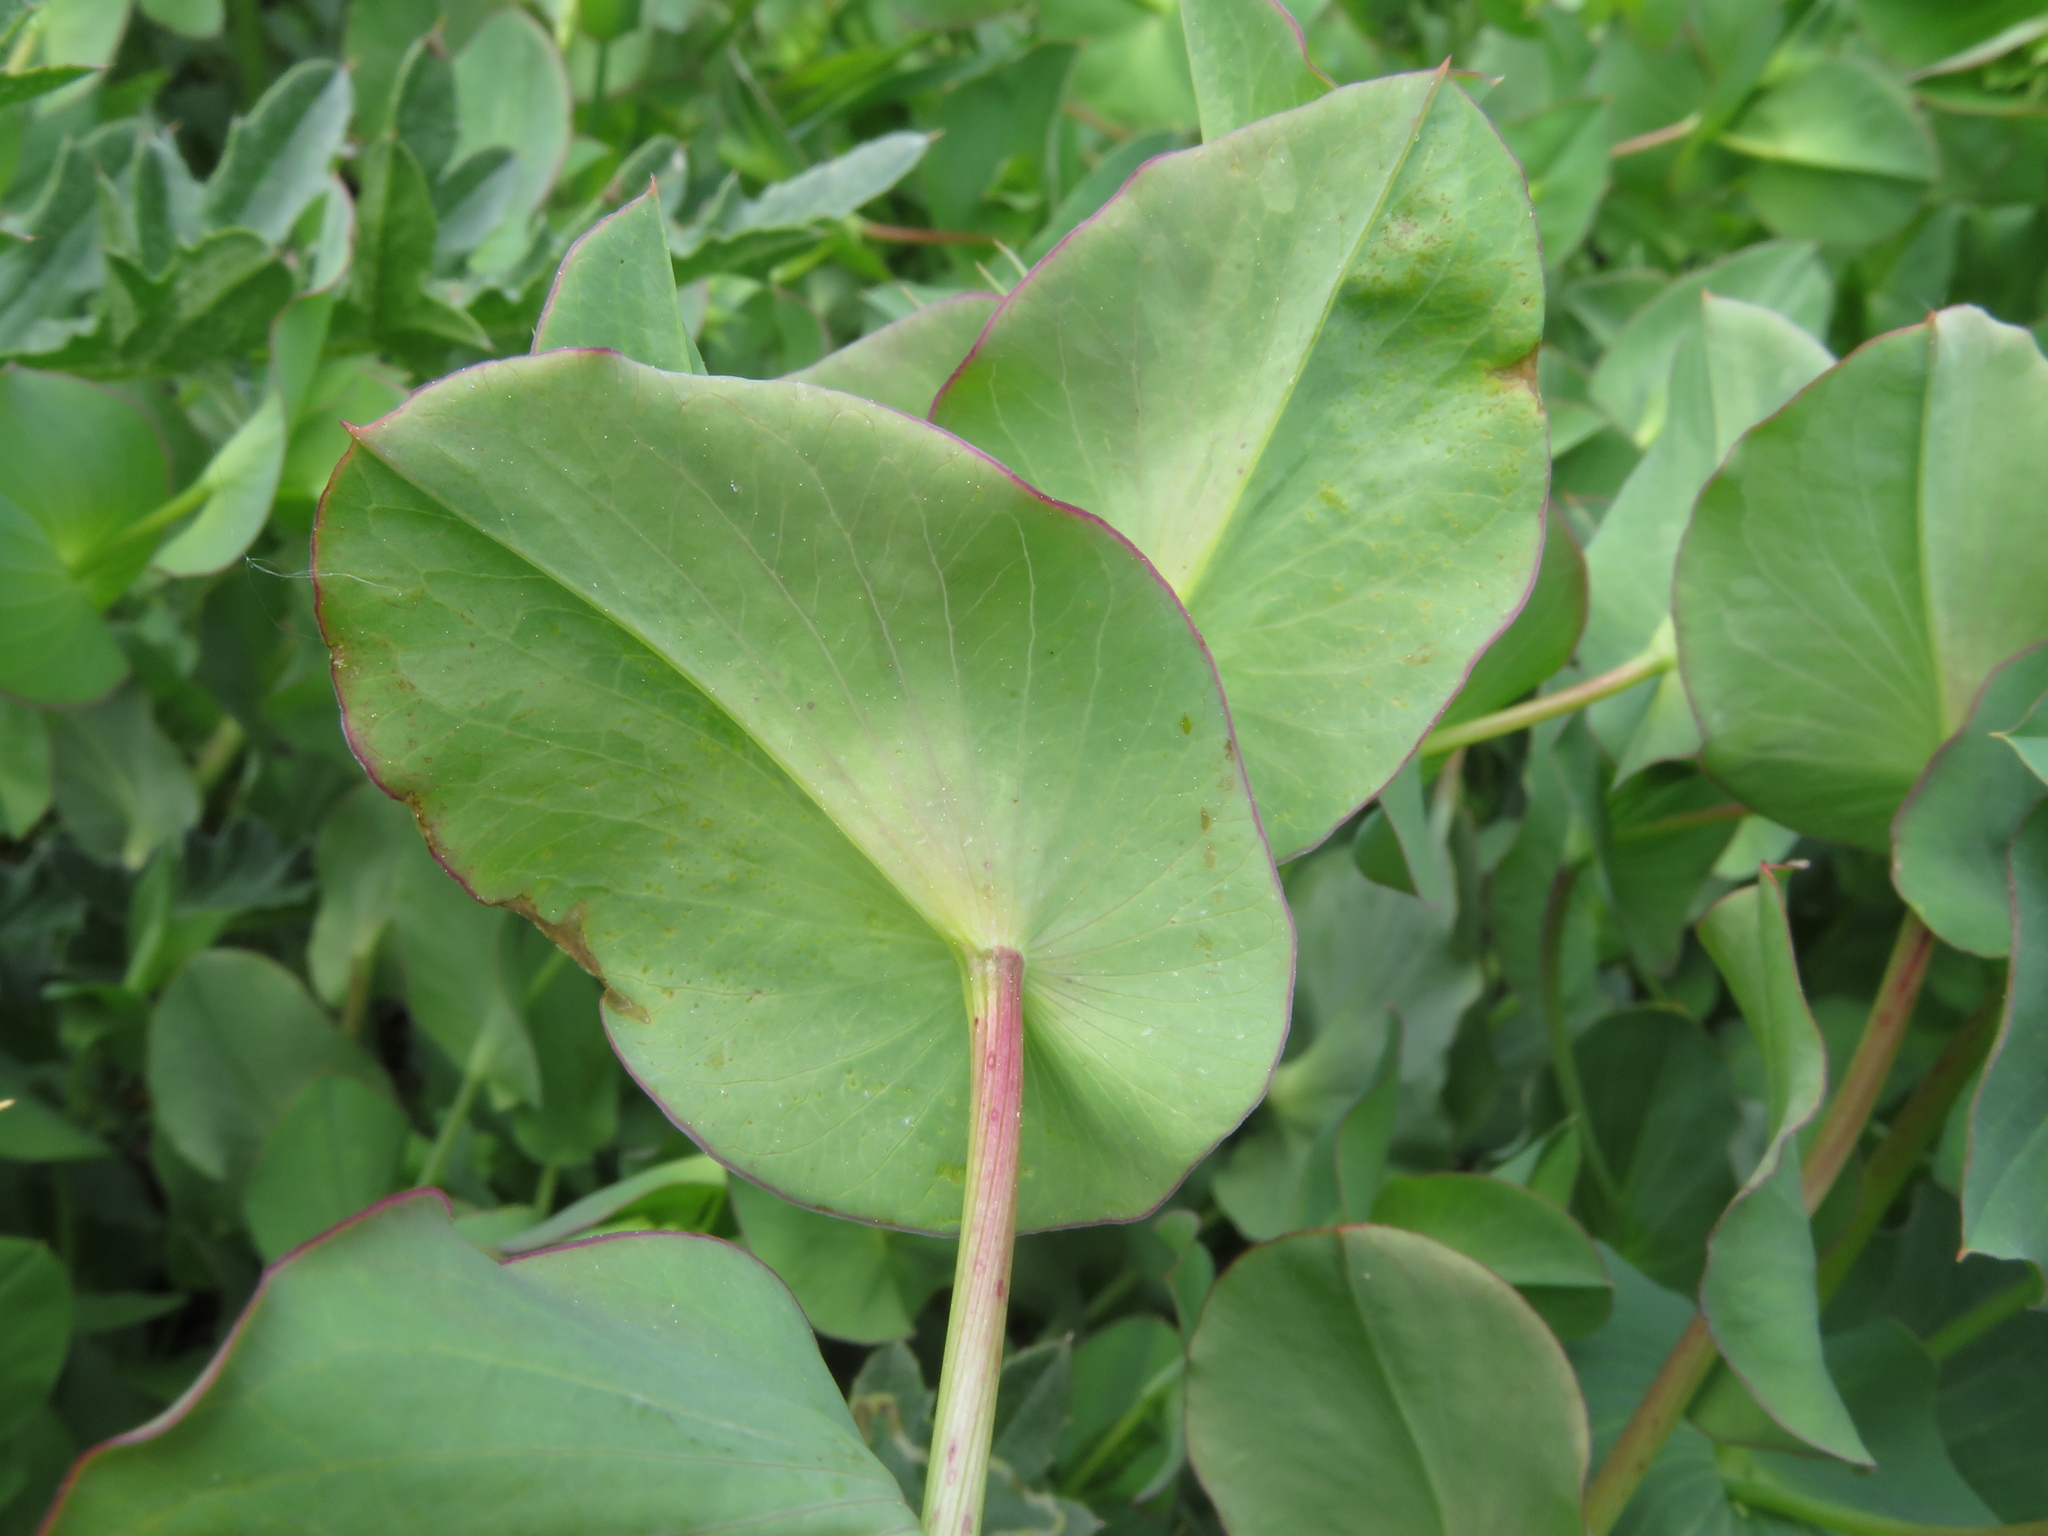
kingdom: Plantae
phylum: Tracheophyta
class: Magnoliopsida
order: Apiales
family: Apiaceae
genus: Bupleurum
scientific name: Bupleurum rotundifolium
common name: Thorow-wax
